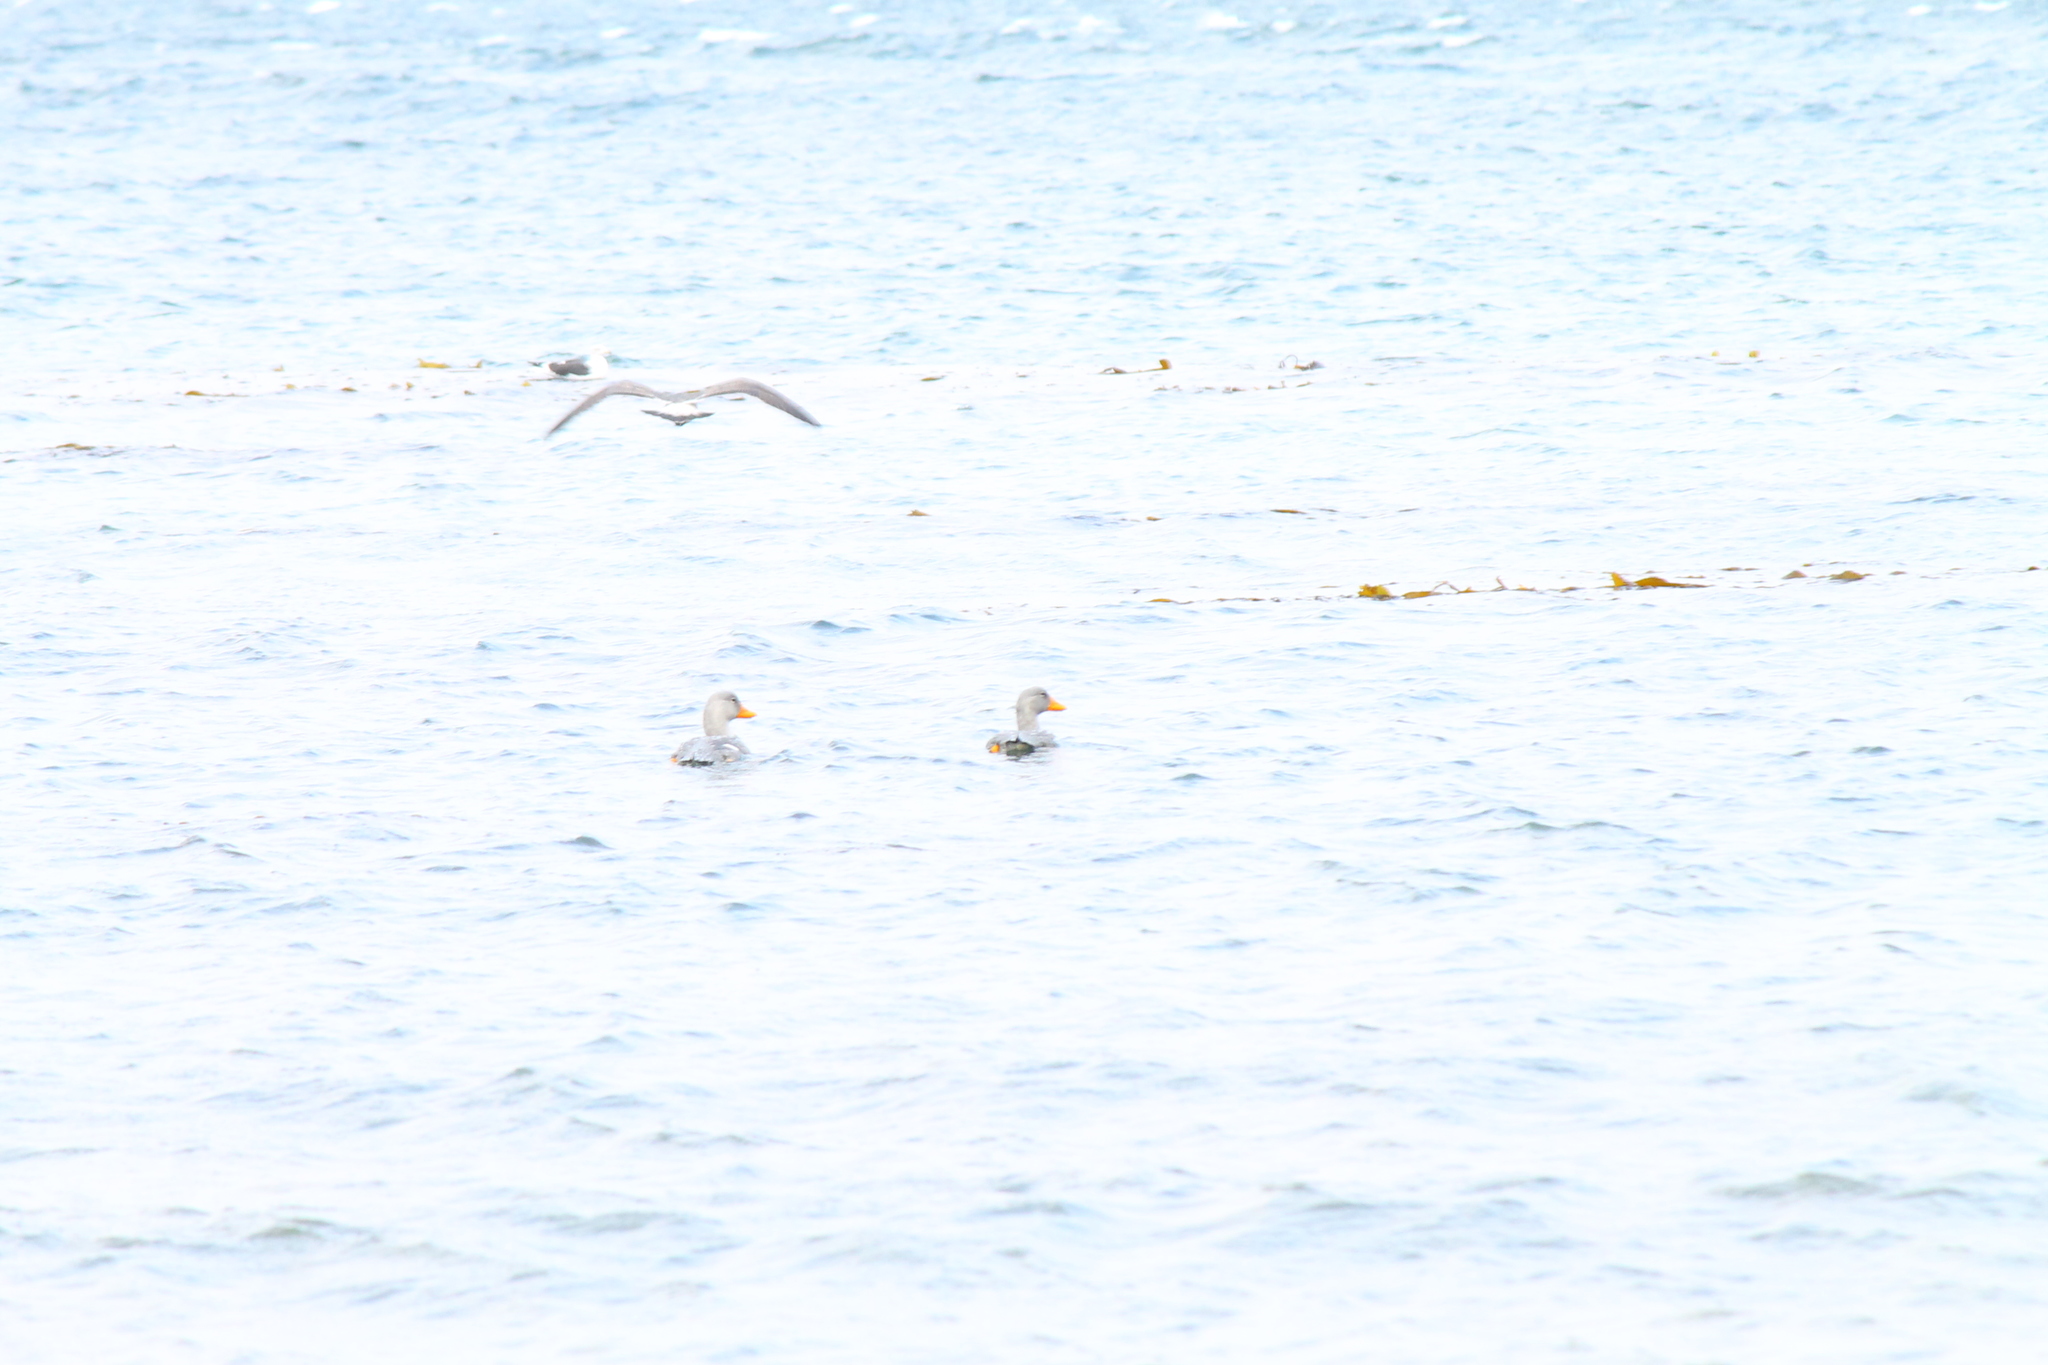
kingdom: Animalia
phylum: Chordata
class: Aves
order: Anseriformes
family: Anatidae
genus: Tachyeres
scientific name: Tachyeres pteneres
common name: Fuegian steamer duck
